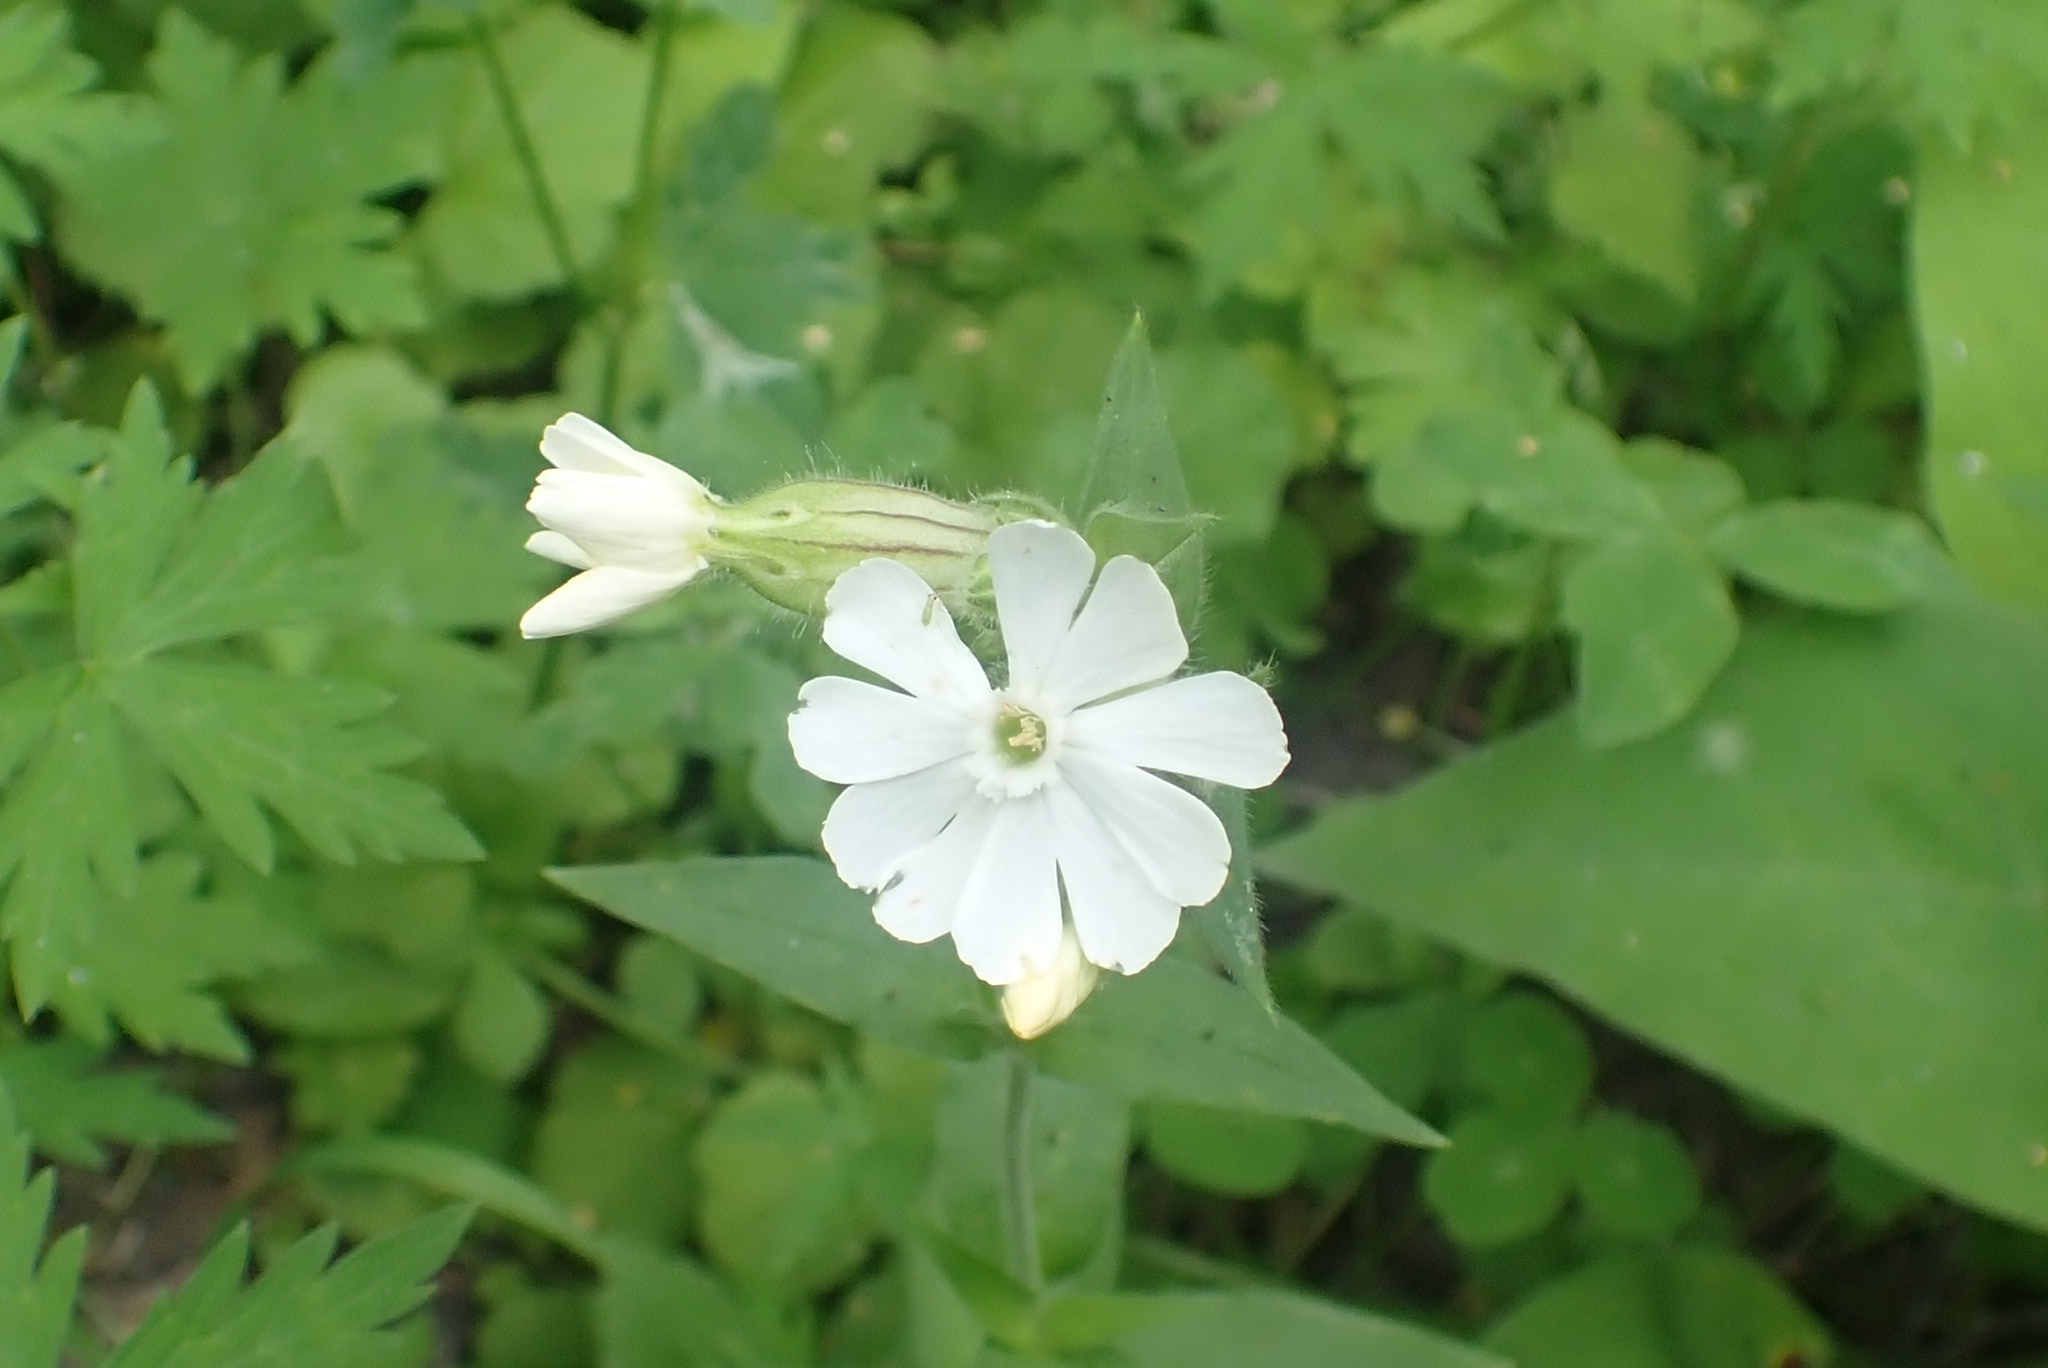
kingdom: Plantae
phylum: Tracheophyta
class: Magnoliopsida
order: Caryophyllales
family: Caryophyllaceae
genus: Silene
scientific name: Silene latifolia
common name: White campion
